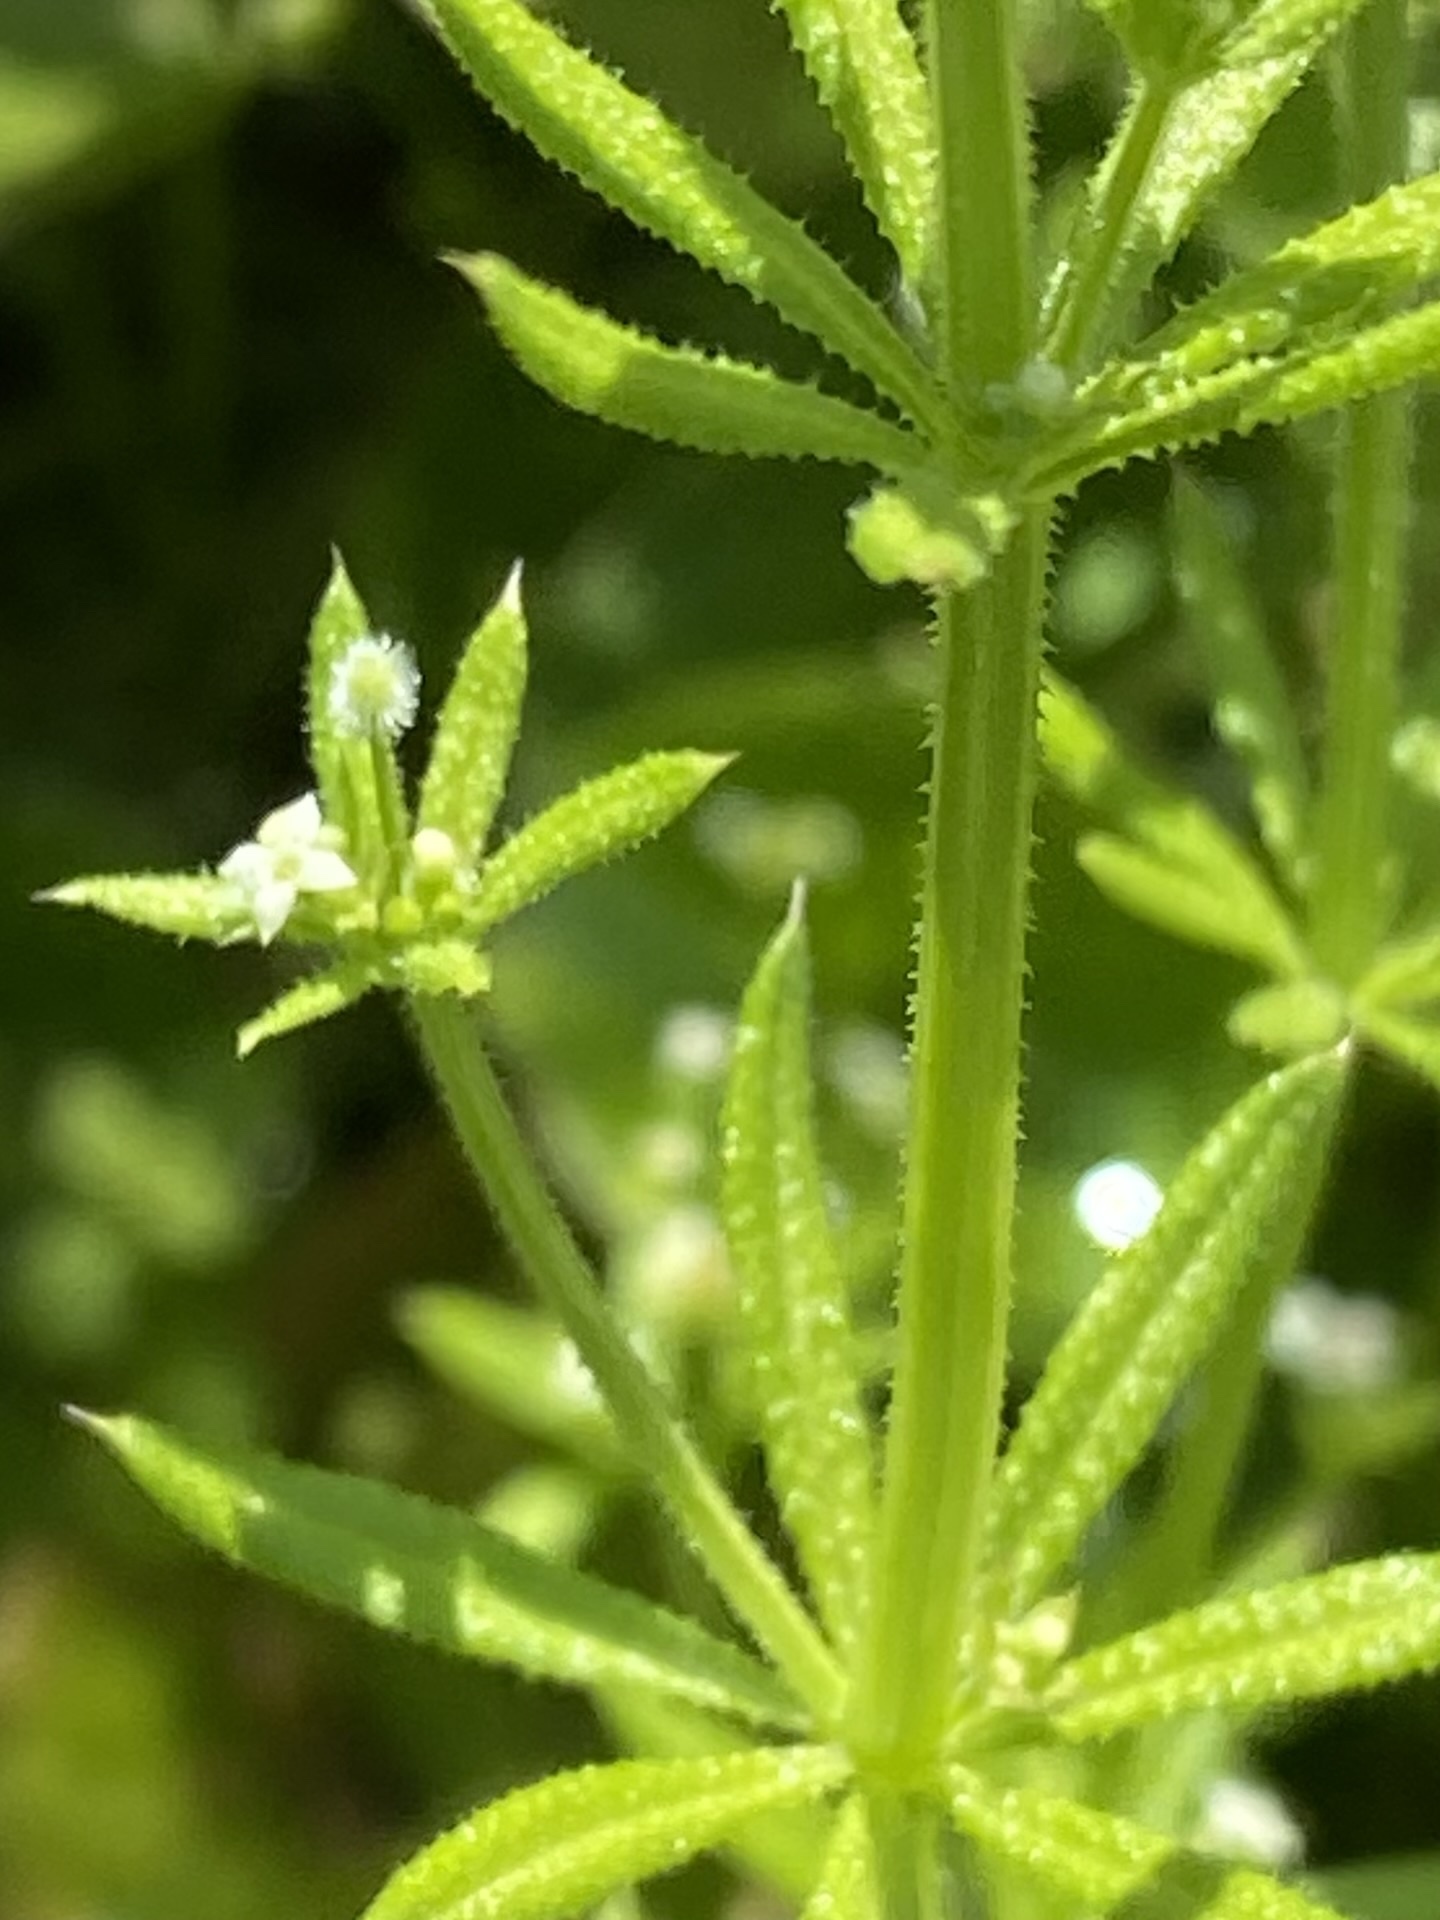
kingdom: Plantae
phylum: Tracheophyta
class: Magnoliopsida
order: Gentianales
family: Rubiaceae
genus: Galium
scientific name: Galium aparine
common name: Cleavers
